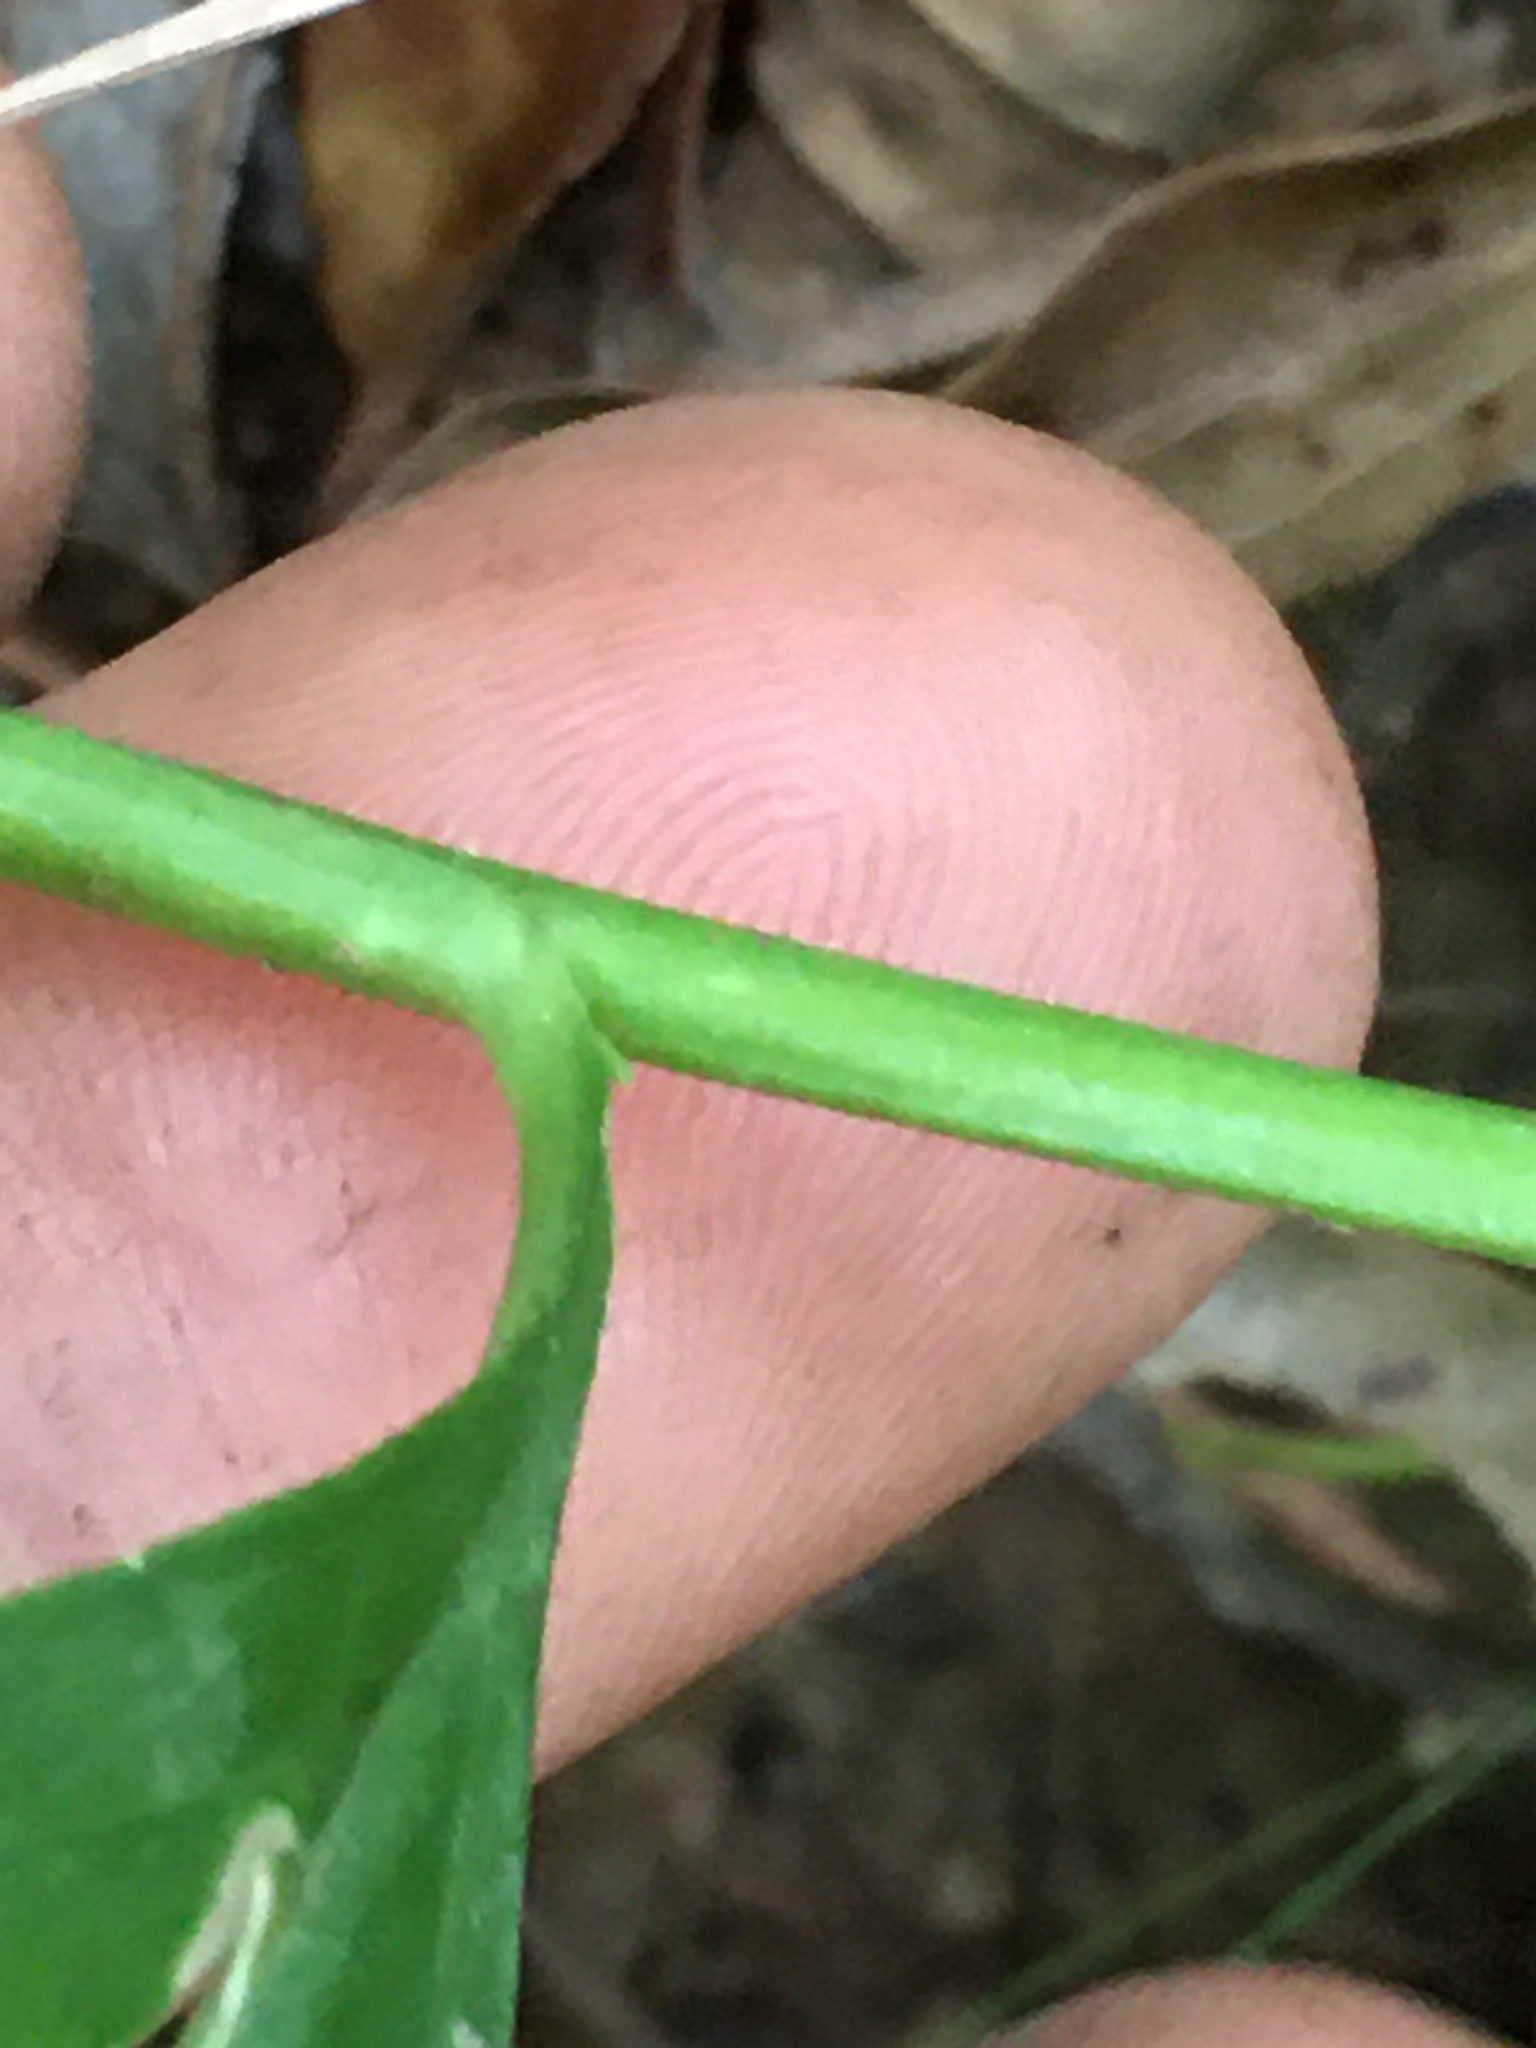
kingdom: Plantae
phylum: Tracheophyta
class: Magnoliopsida
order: Asterales
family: Campanulaceae
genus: Lobelia
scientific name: Lobelia amoena
